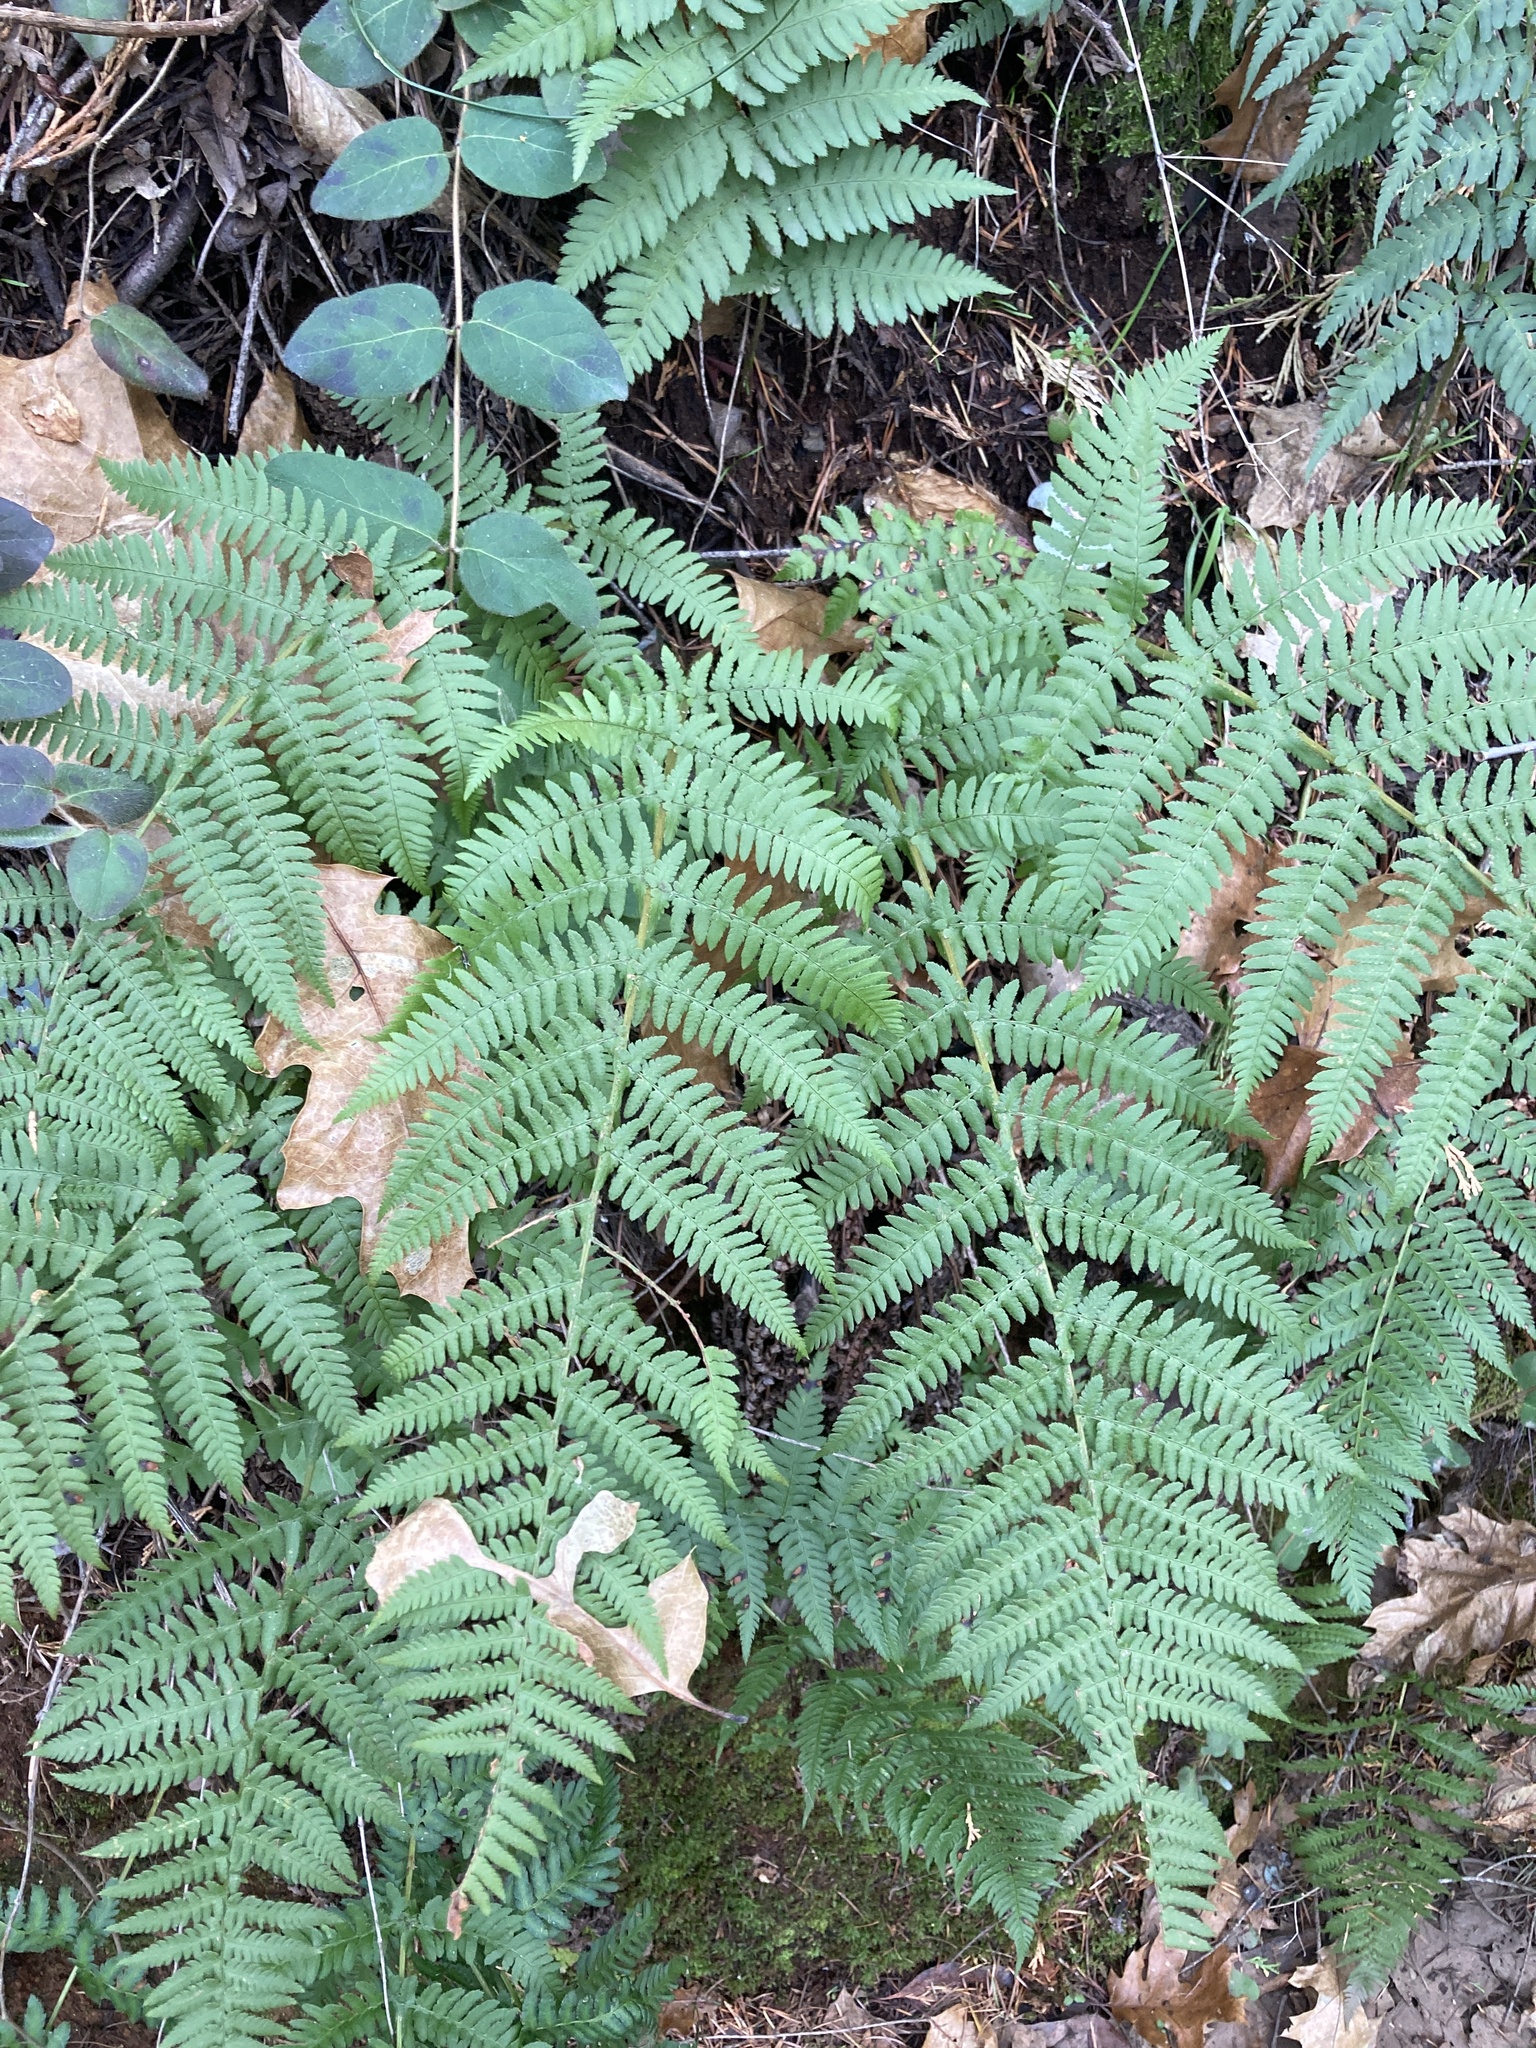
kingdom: Plantae
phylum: Tracheophyta
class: Polypodiopsida
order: Polypodiales
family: Dryopteridaceae
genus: Dryopteris
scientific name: Dryopteris arguta
